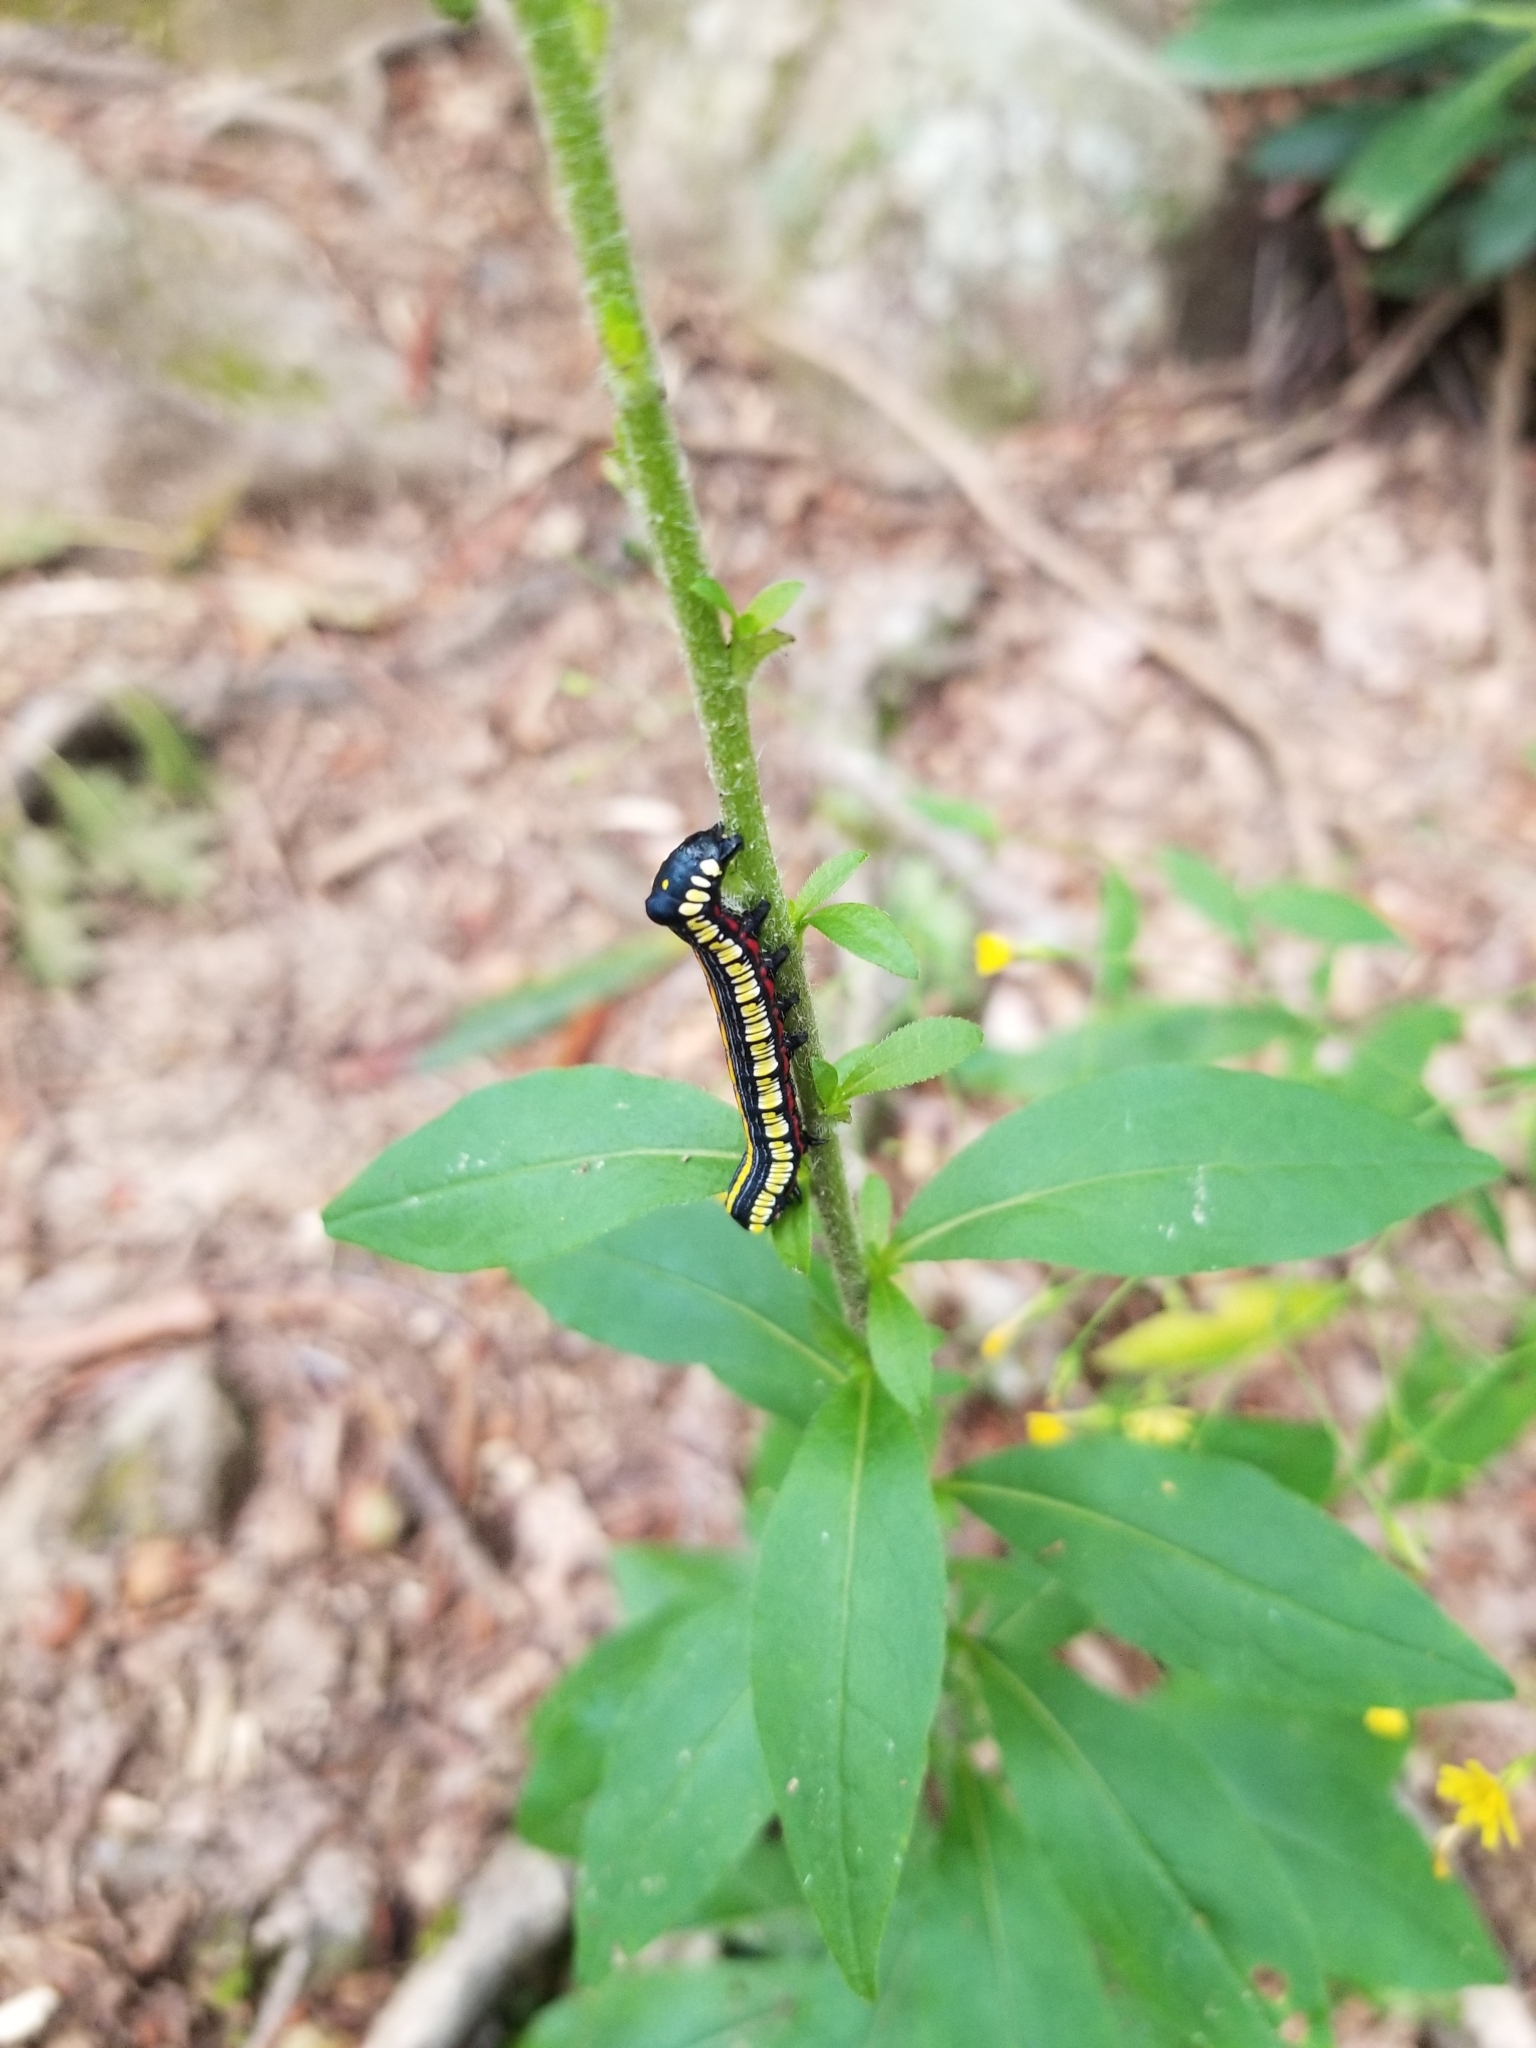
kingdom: Animalia
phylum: Arthropoda
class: Insecta
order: Lepidoptera
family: Noctuidae
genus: Cucullia
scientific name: Cucullia convexipennis
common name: Brown-hooded owlet
